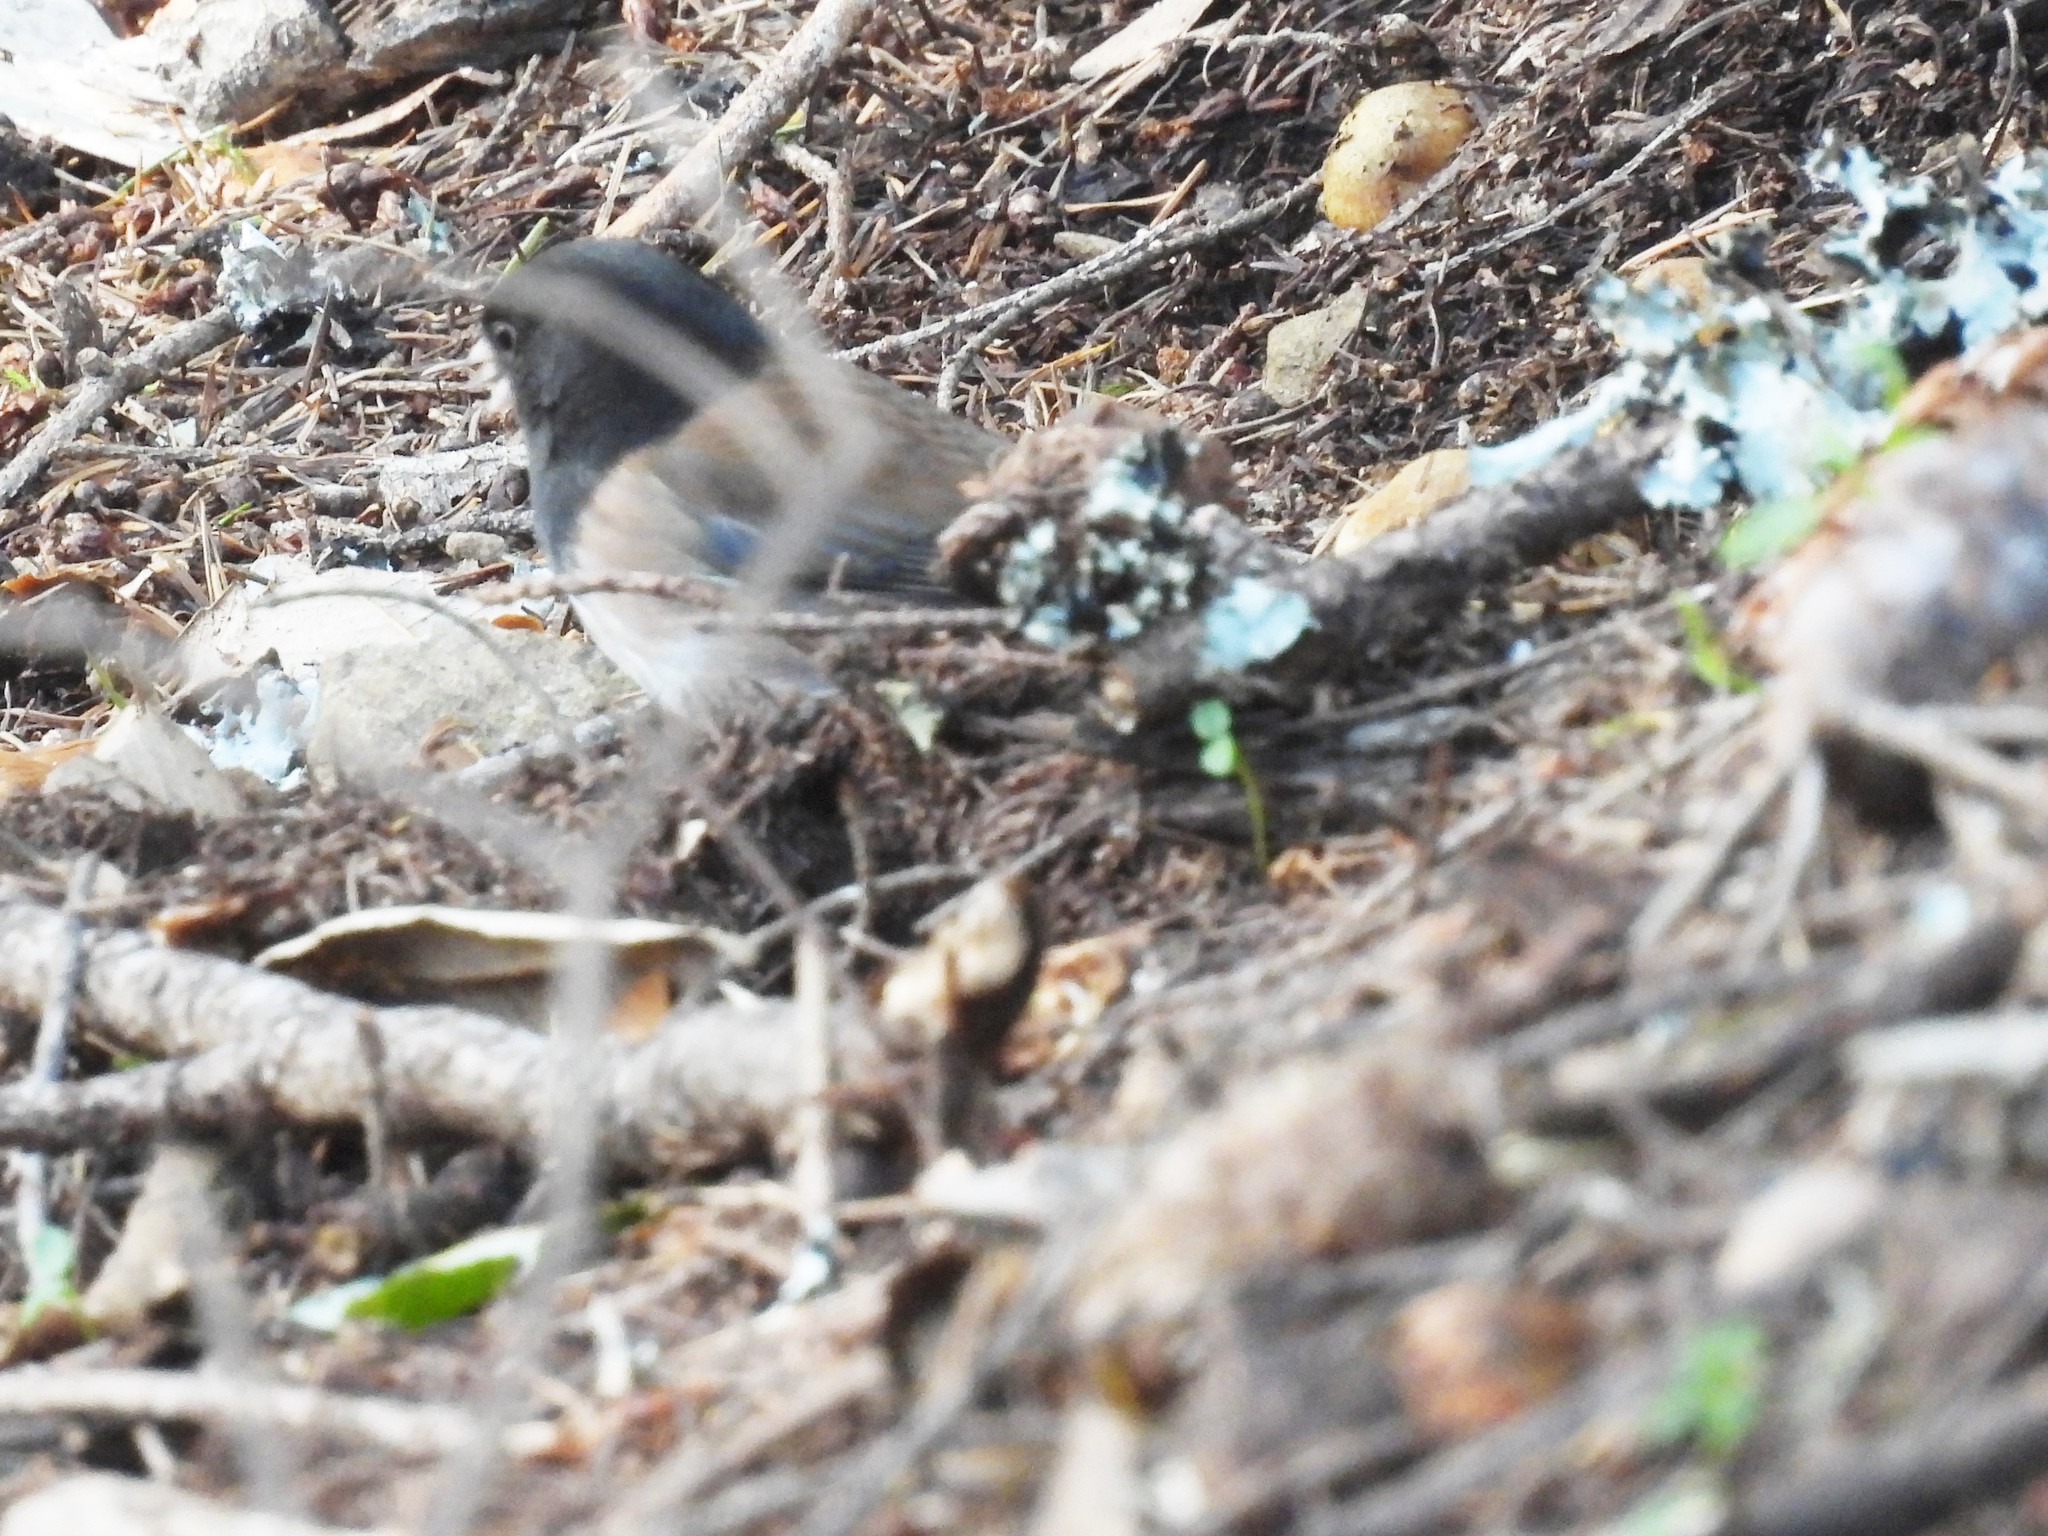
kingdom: Animalia
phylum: Chordata
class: Aves
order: Passeriformes
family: Passerellidae
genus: Junco
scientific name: Junco hyemalis
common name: Dark-eyed junco
